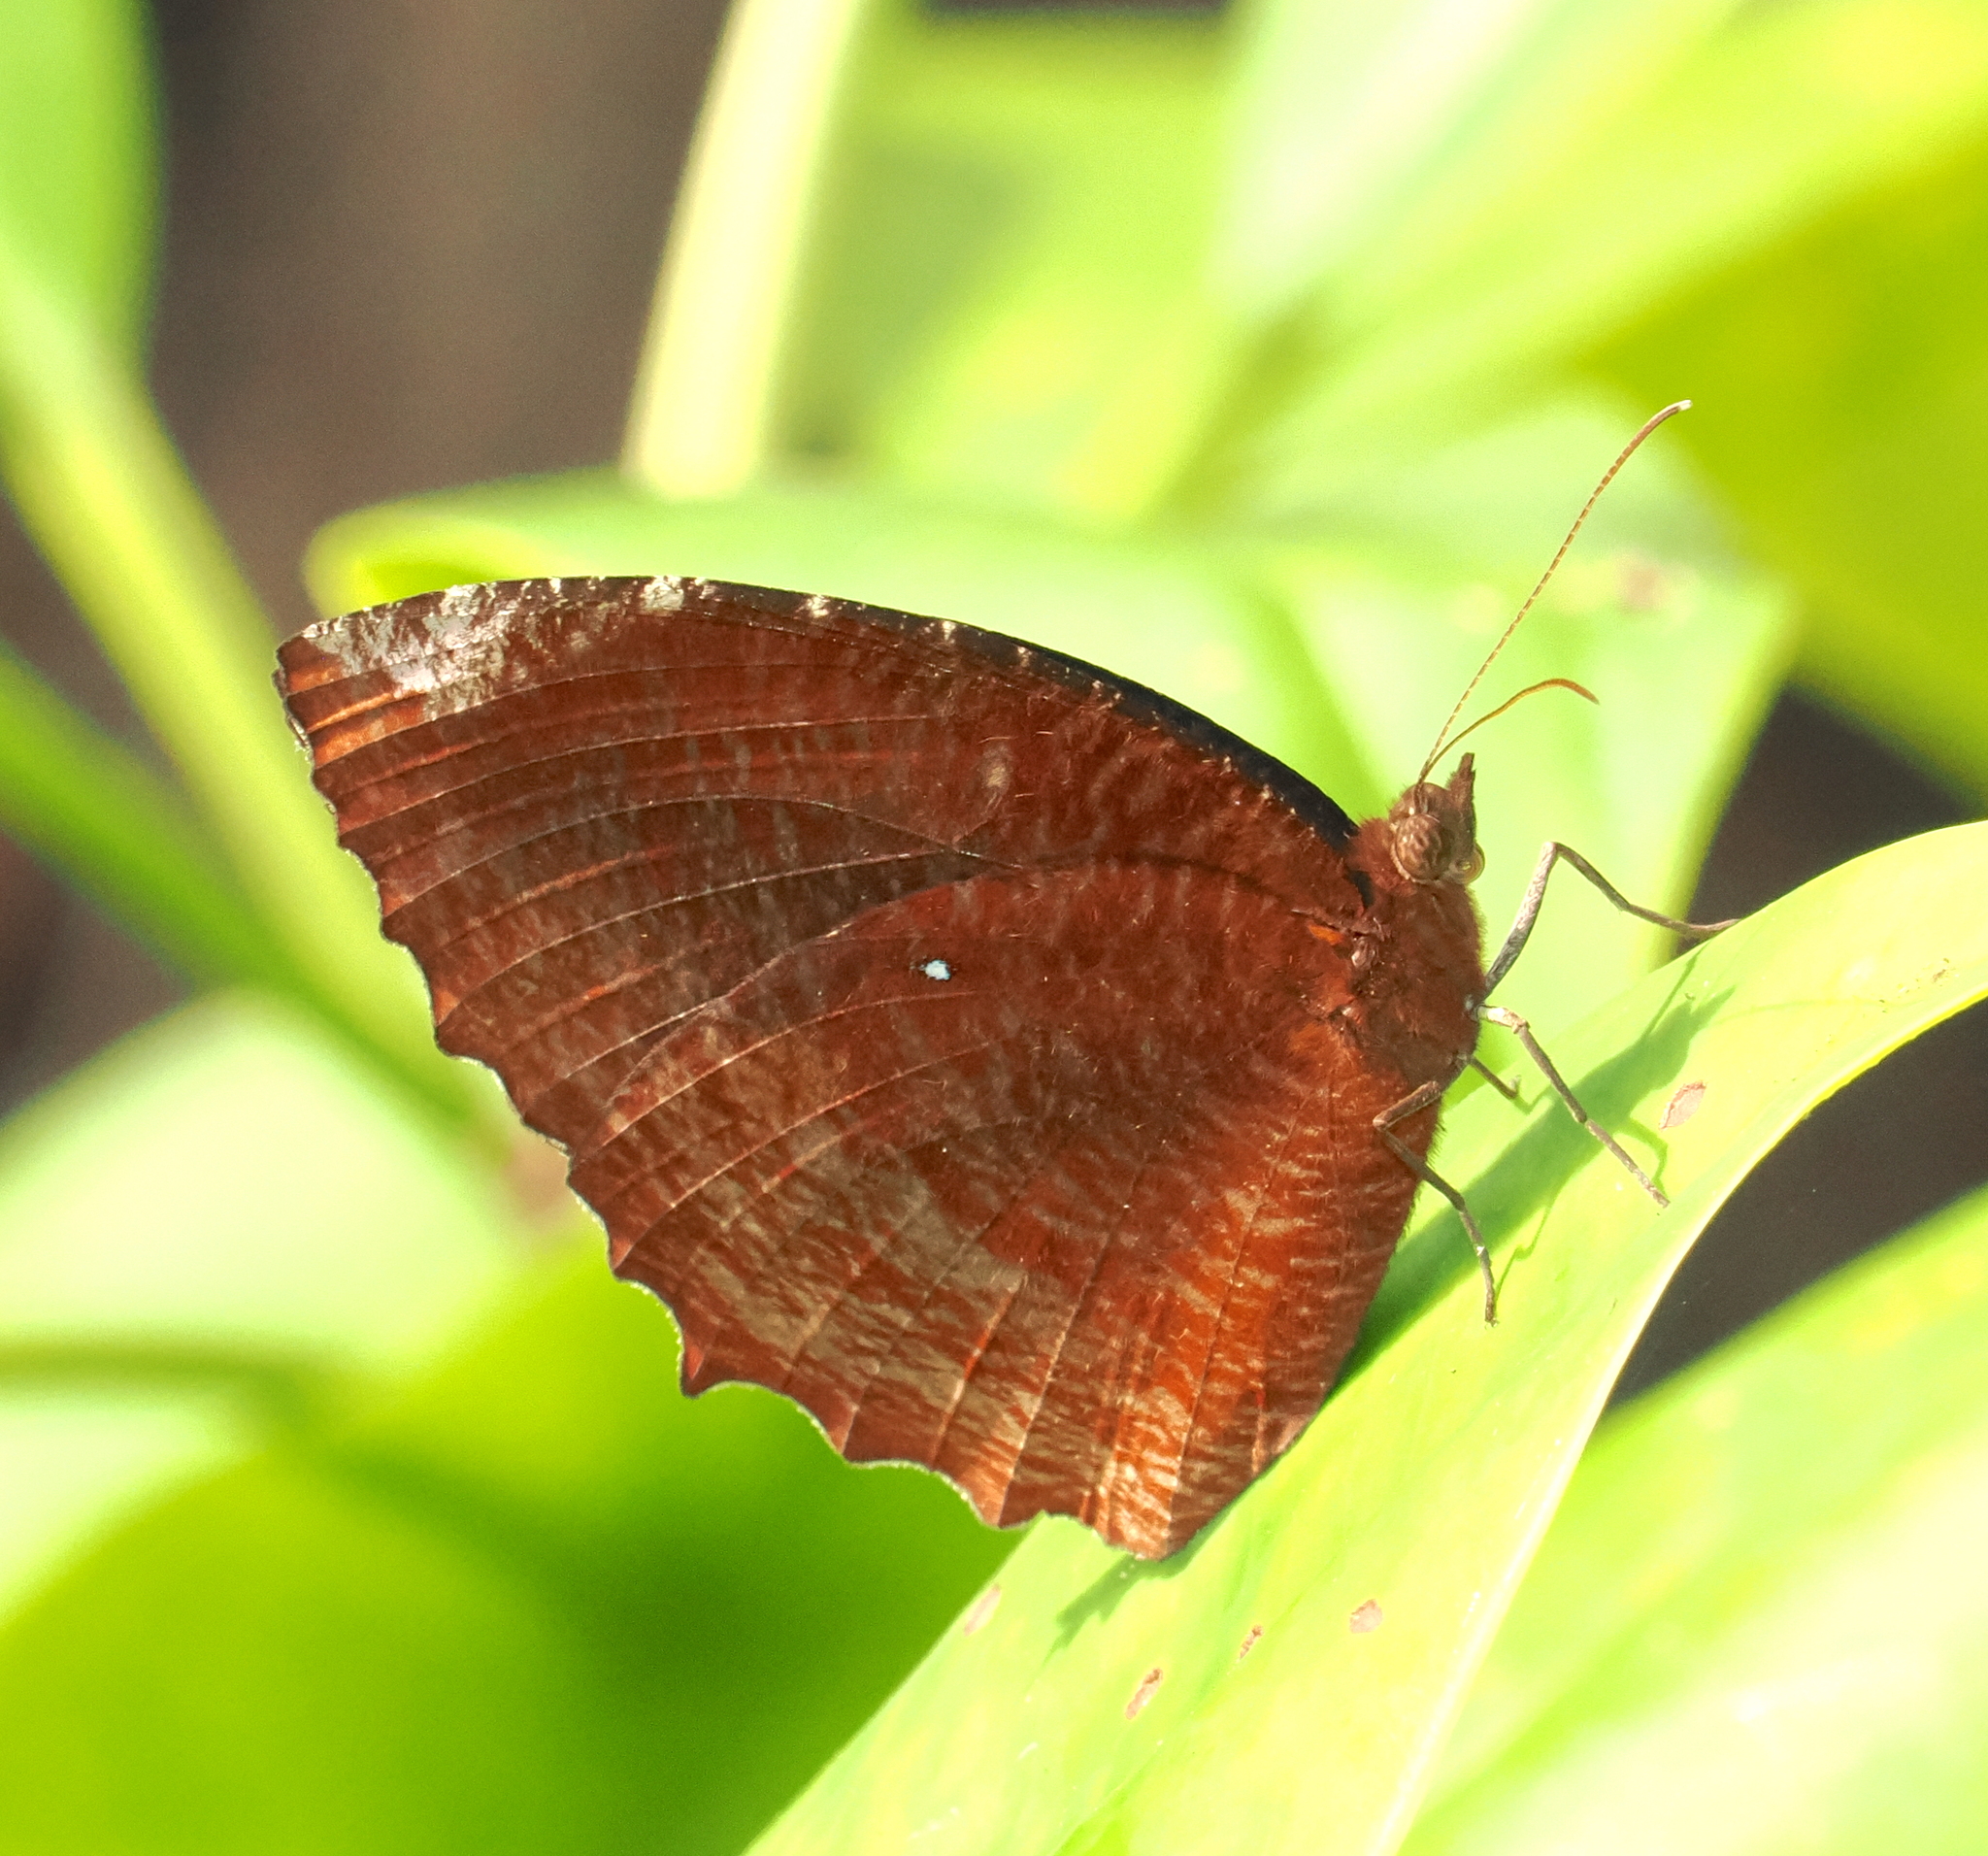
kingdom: Animalia
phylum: Arthropoda
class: Insecta
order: Lepidoptera
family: Nymphalidae
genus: Elymnias
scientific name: Elymnias hypermnestra
